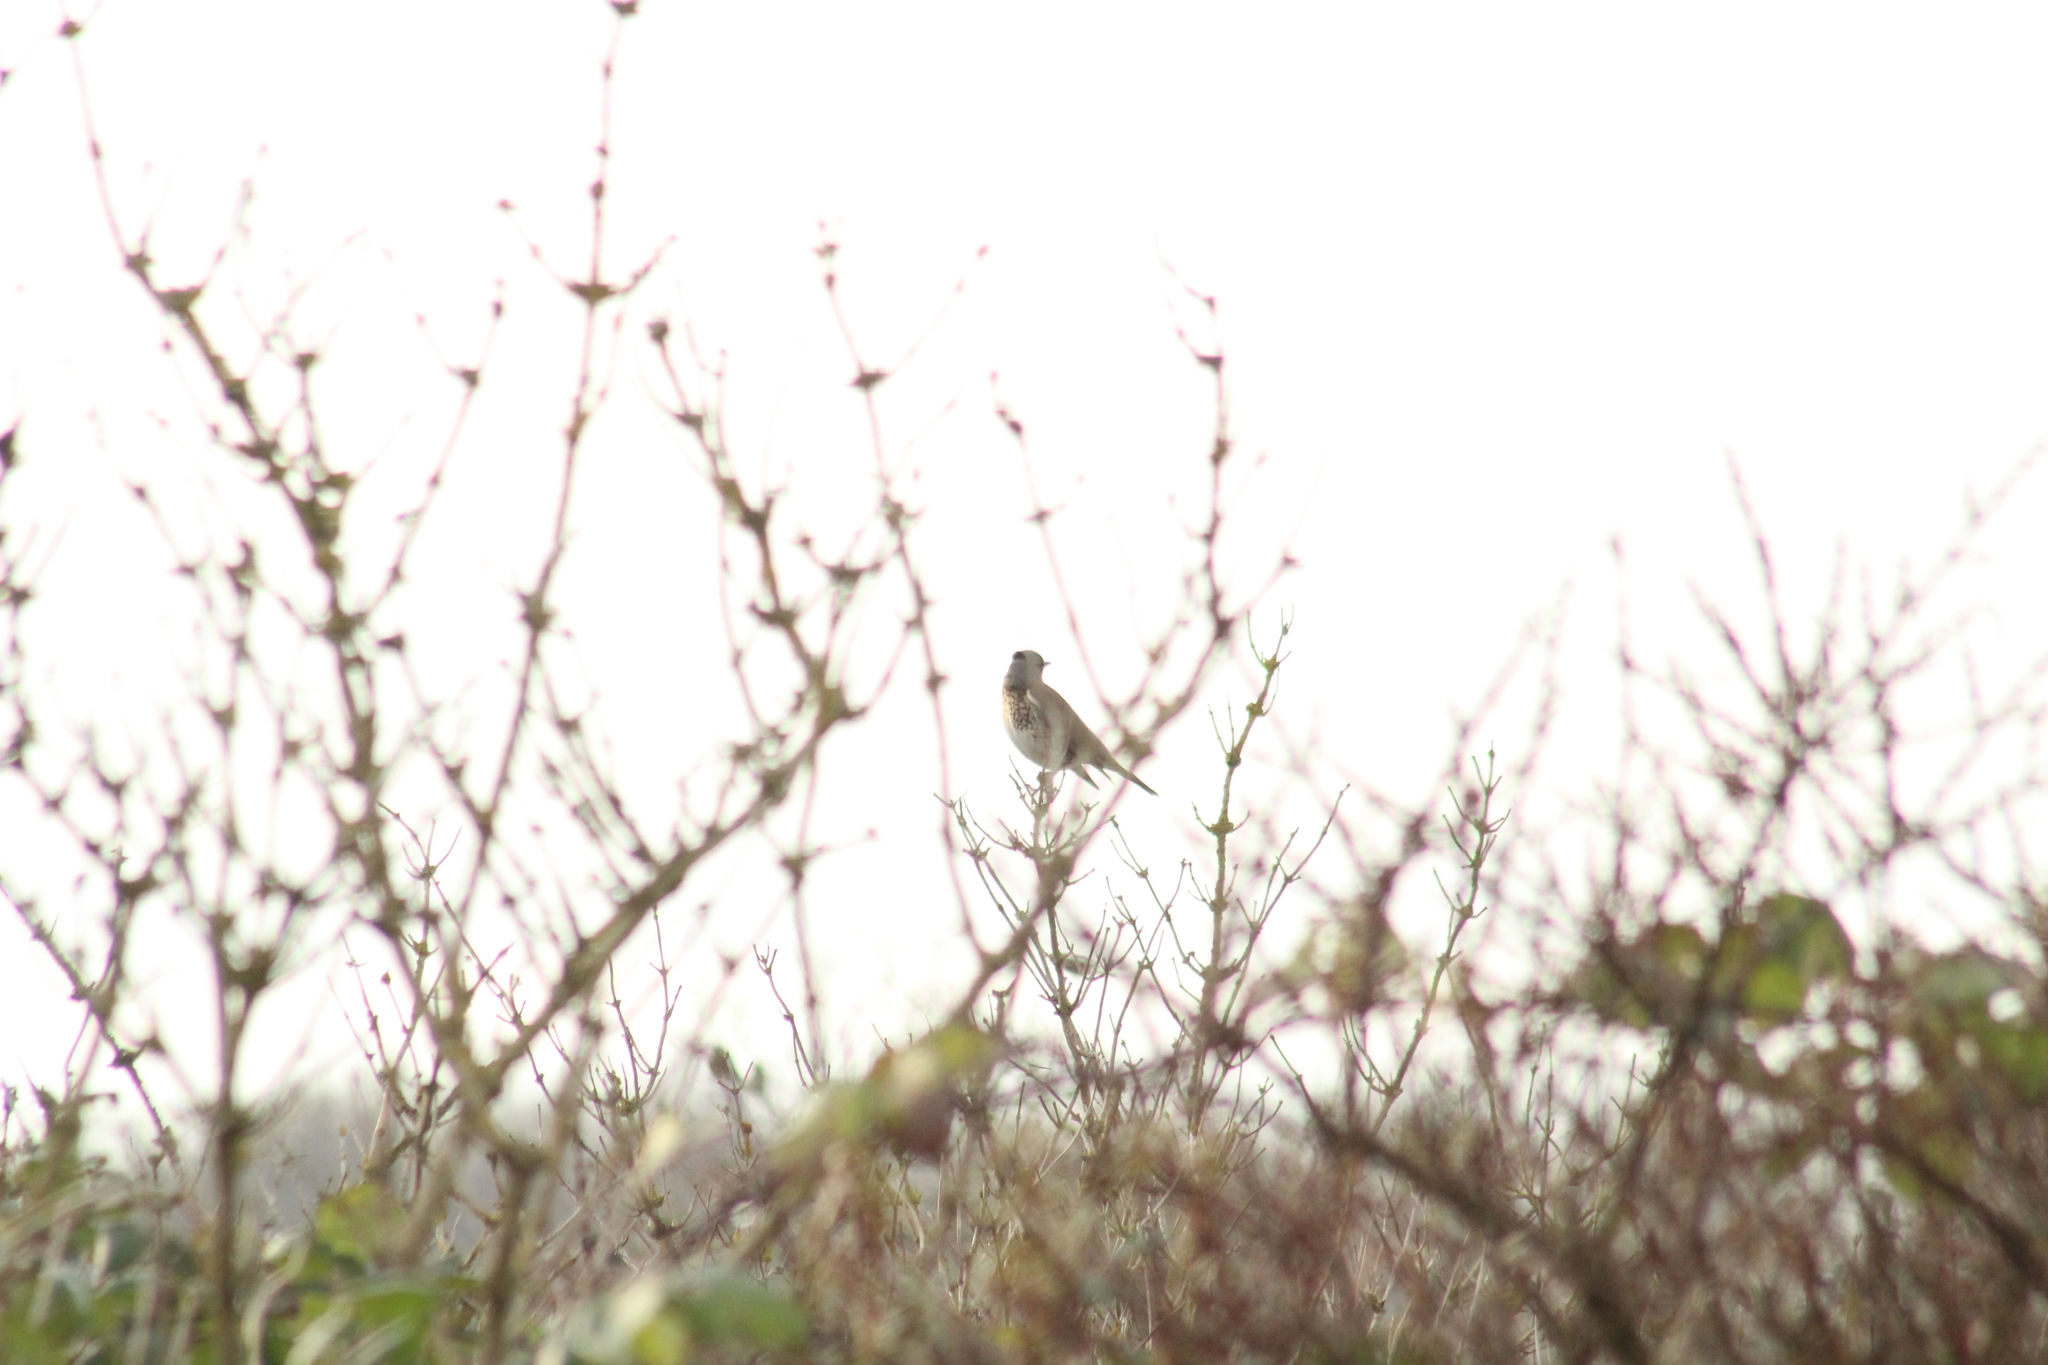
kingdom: Animalia
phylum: Chordata
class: Aves
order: Passeriformes
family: Turdidae
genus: Turdus
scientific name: Turdus pilaris
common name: Fieldfare
